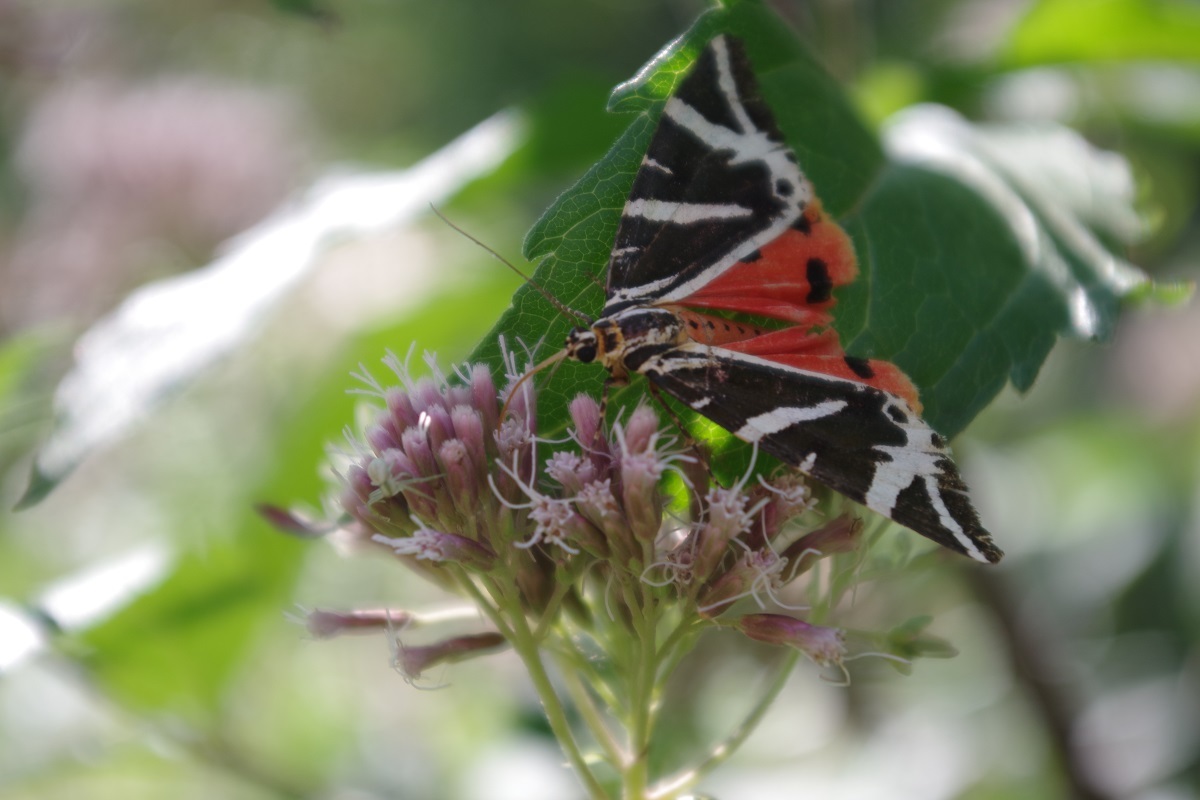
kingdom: Animalia
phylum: Arthropoda
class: Insecta
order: Lepidoptera
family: Erebidae
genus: Euplagia
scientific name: Euplagia quadripunctaria
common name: Jersey tiger
